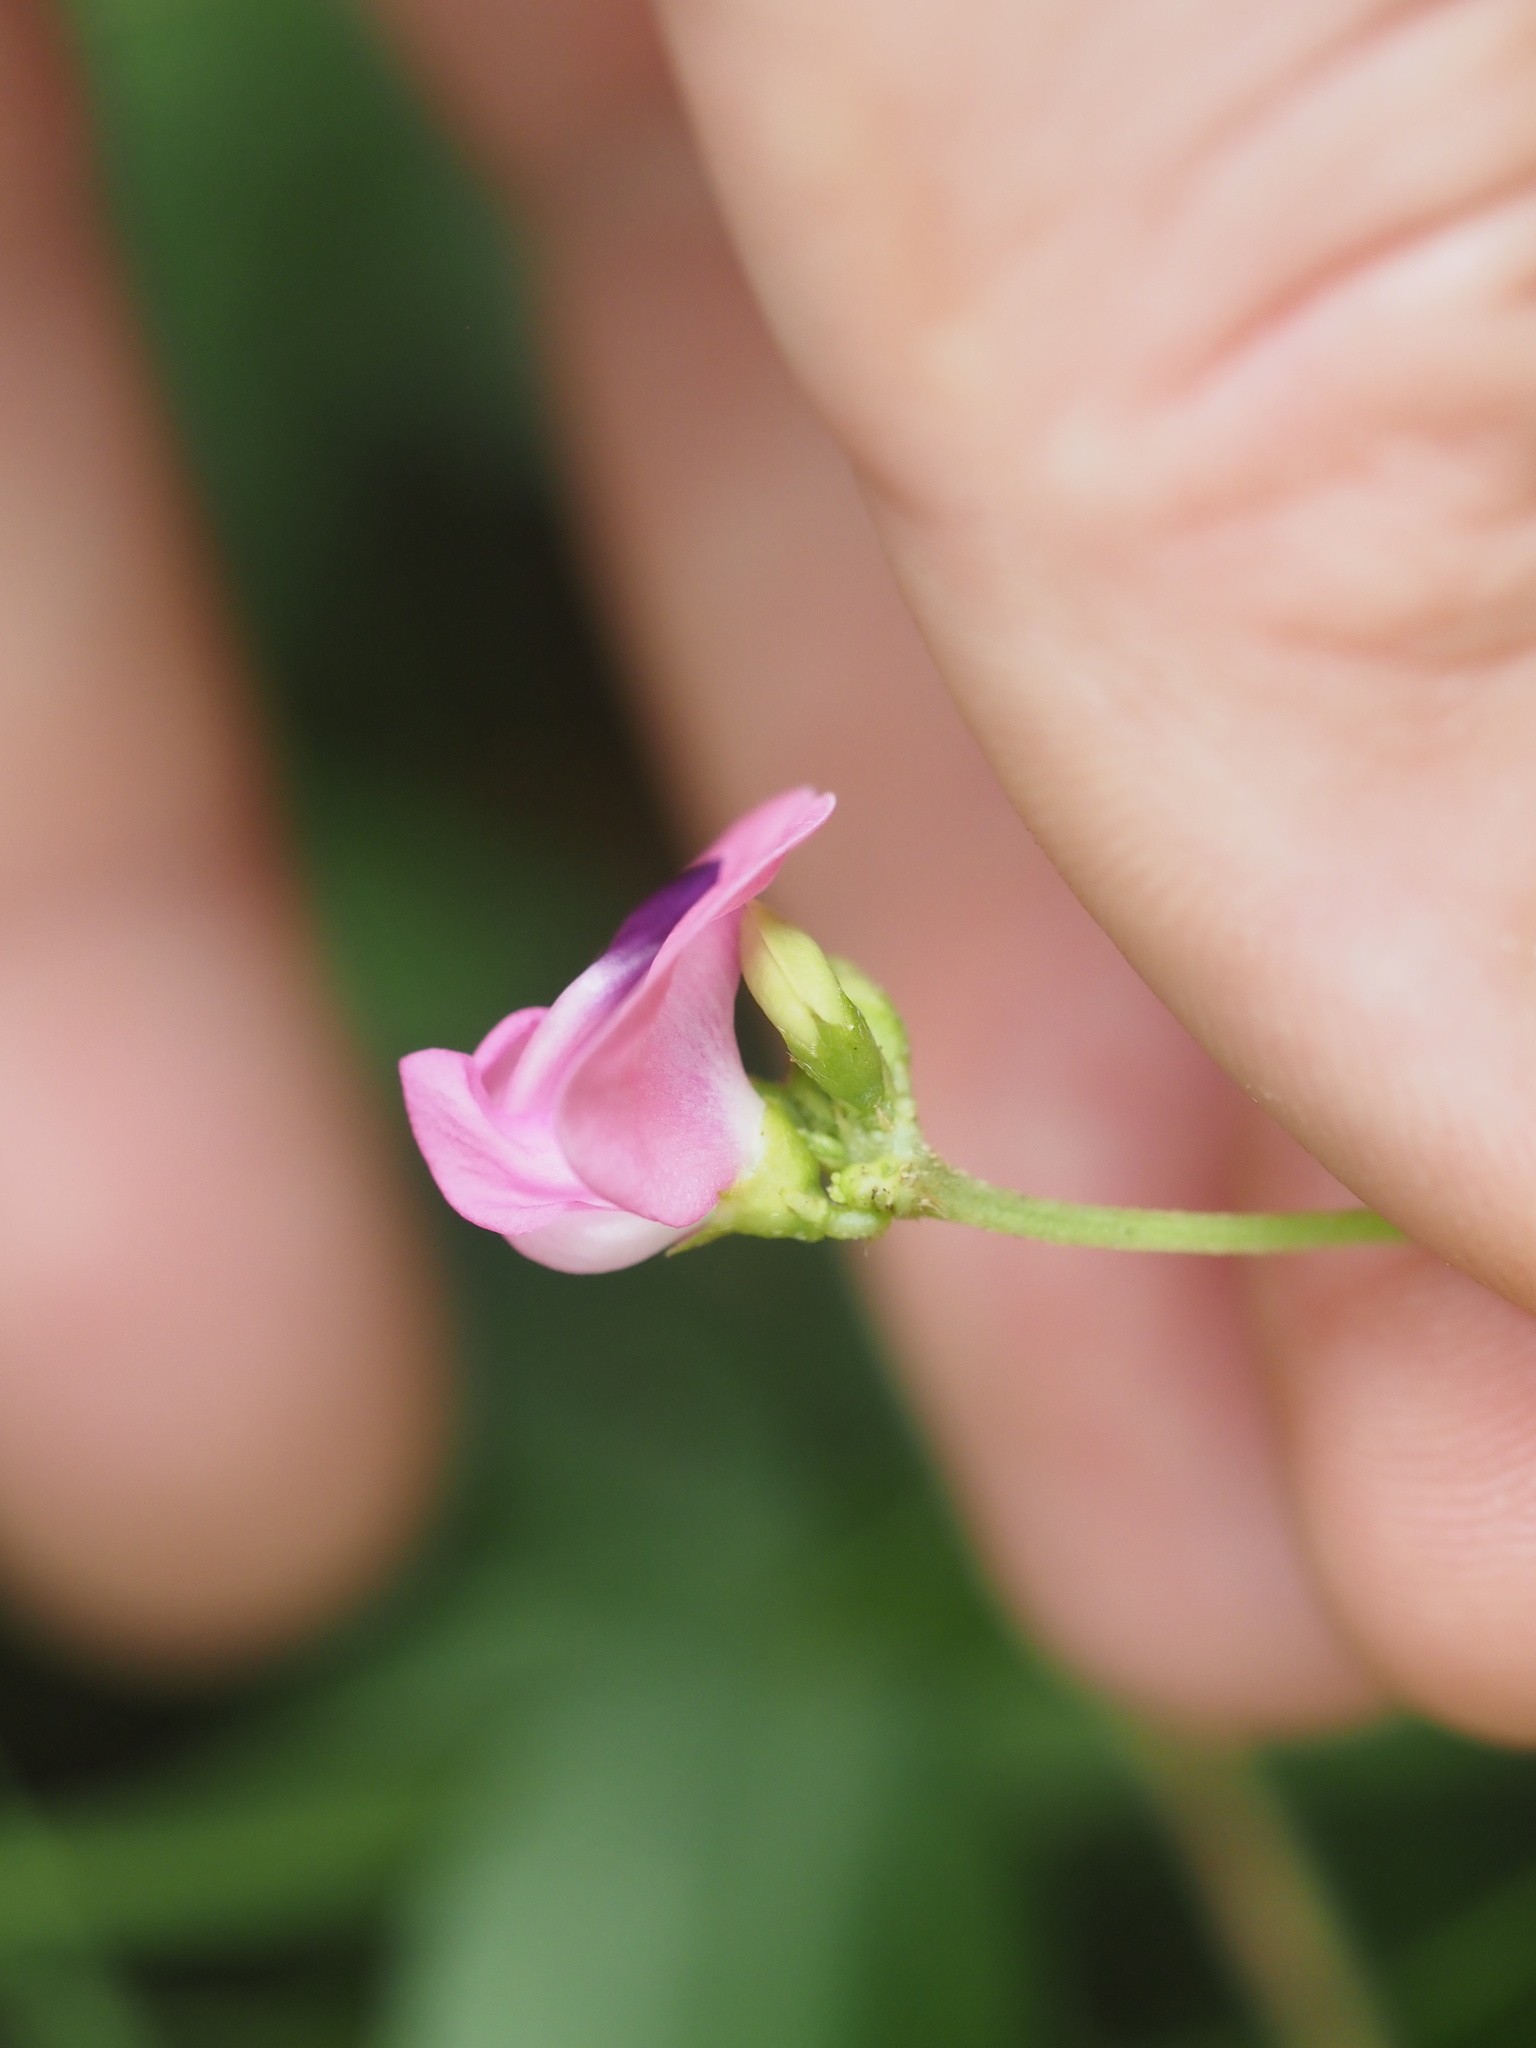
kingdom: Plantae
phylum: Tracheophyta
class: Magnoliopsida
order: Fabales
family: Fabaceae
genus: Strophostyles
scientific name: Strophostyles umbellata
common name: Perennial wild bean
